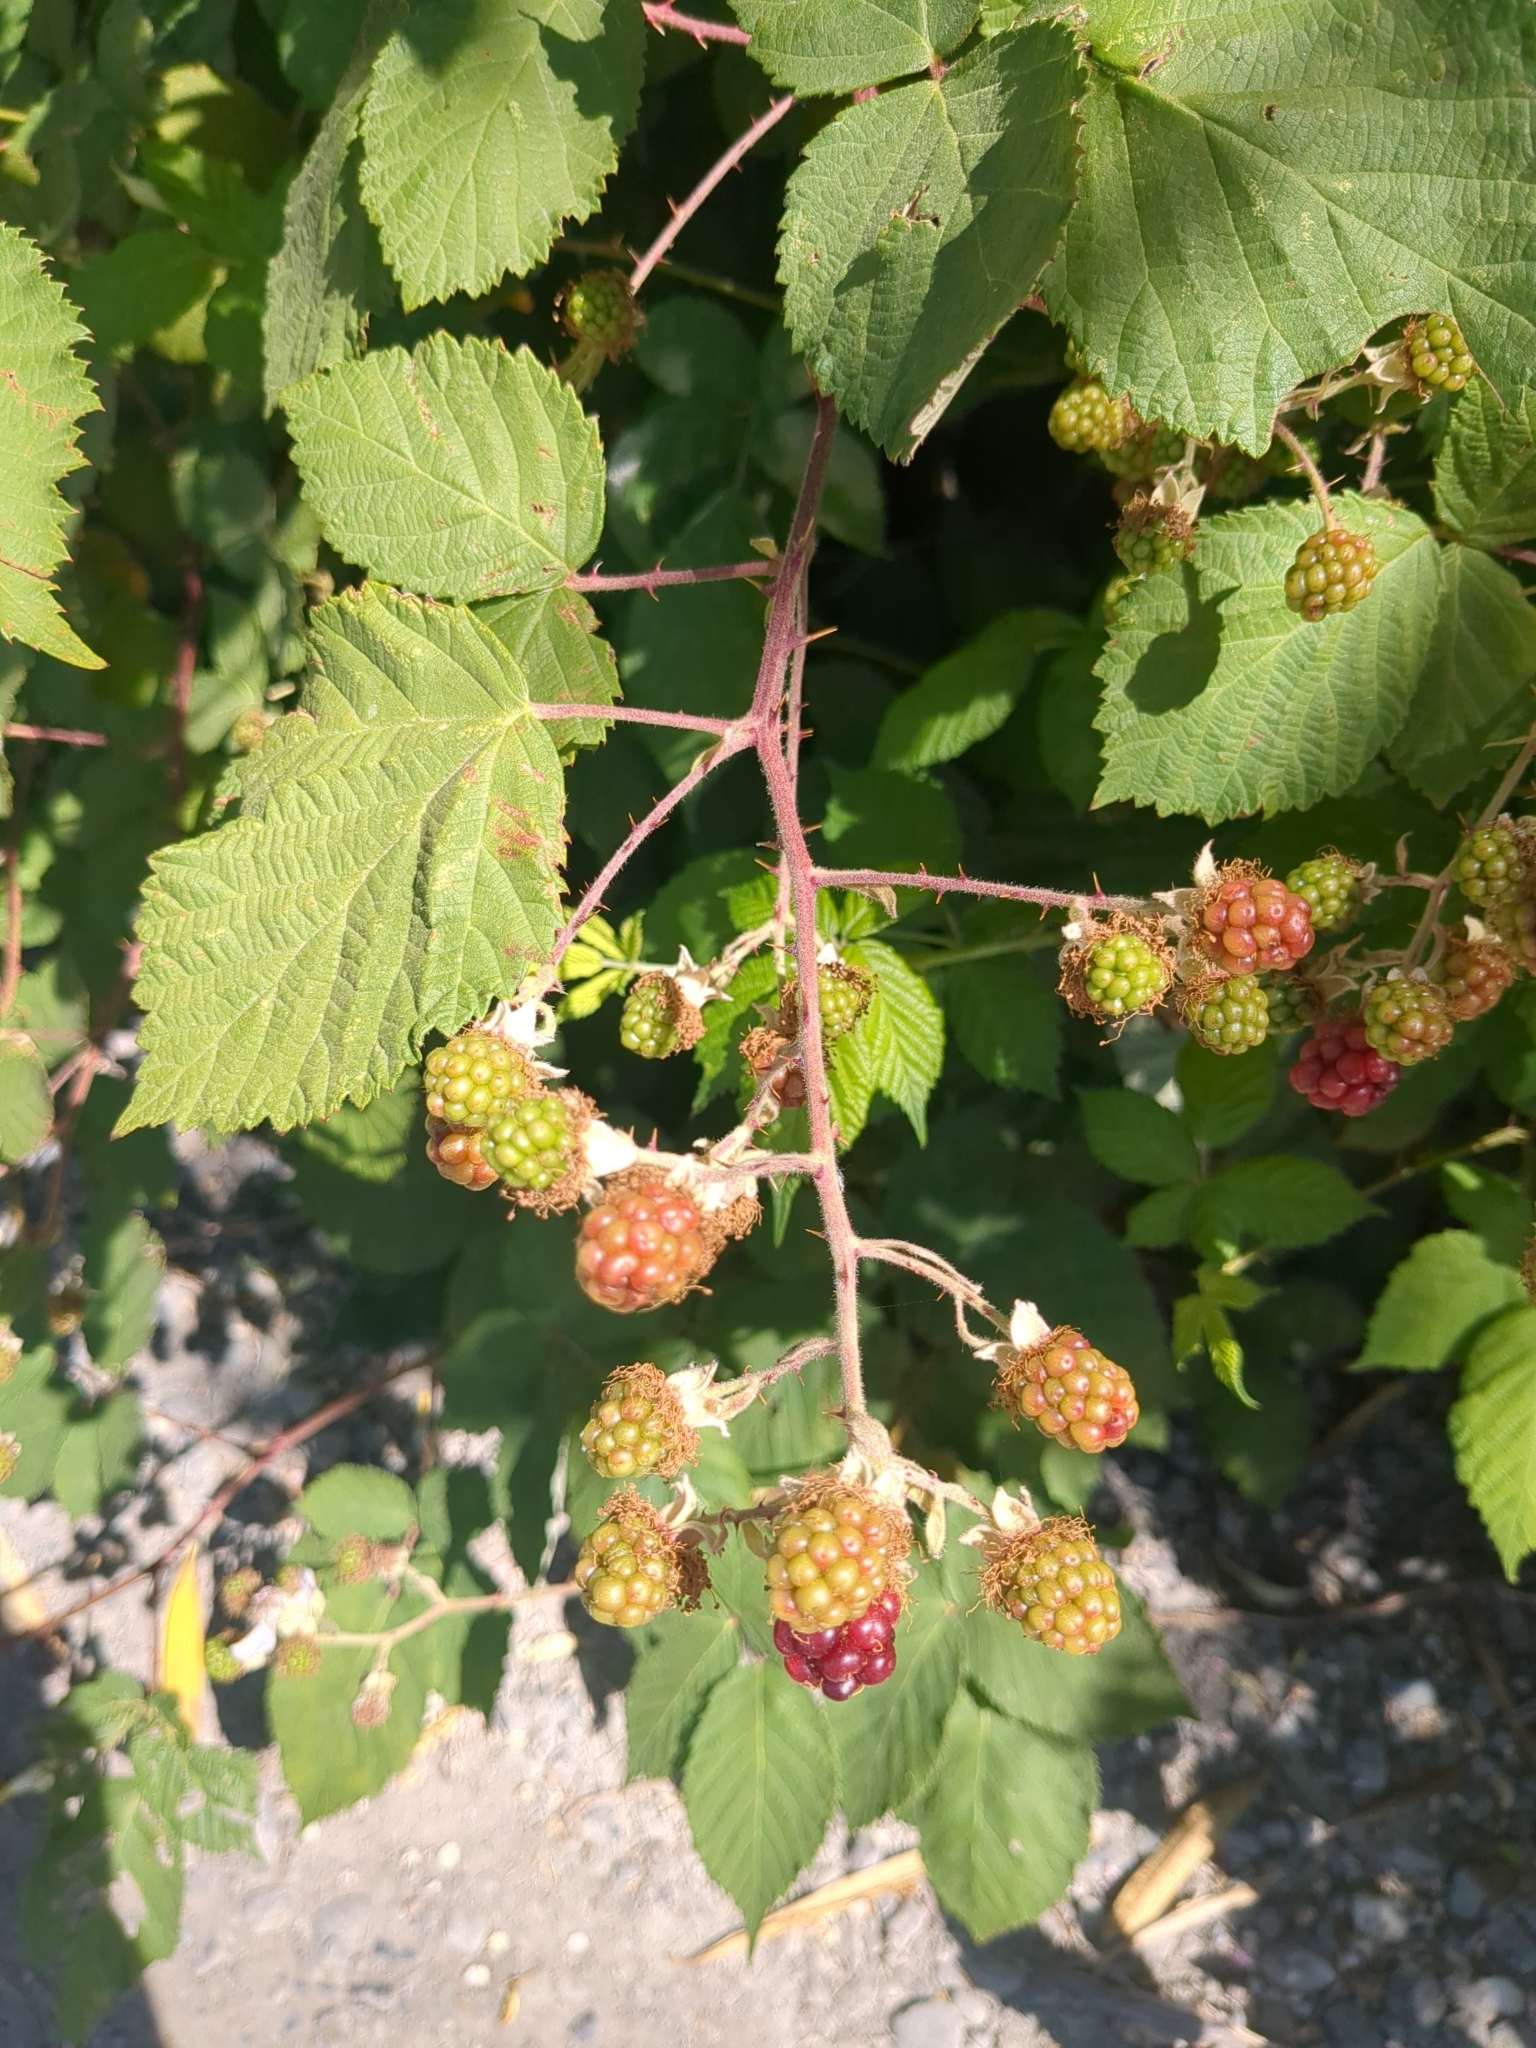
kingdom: Plantae
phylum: Tracheophyta
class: Magnoliopsida
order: Rosales
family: Rosaceae
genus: Rubus
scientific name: Rubus armeniacus
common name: Himalayan blackberry
